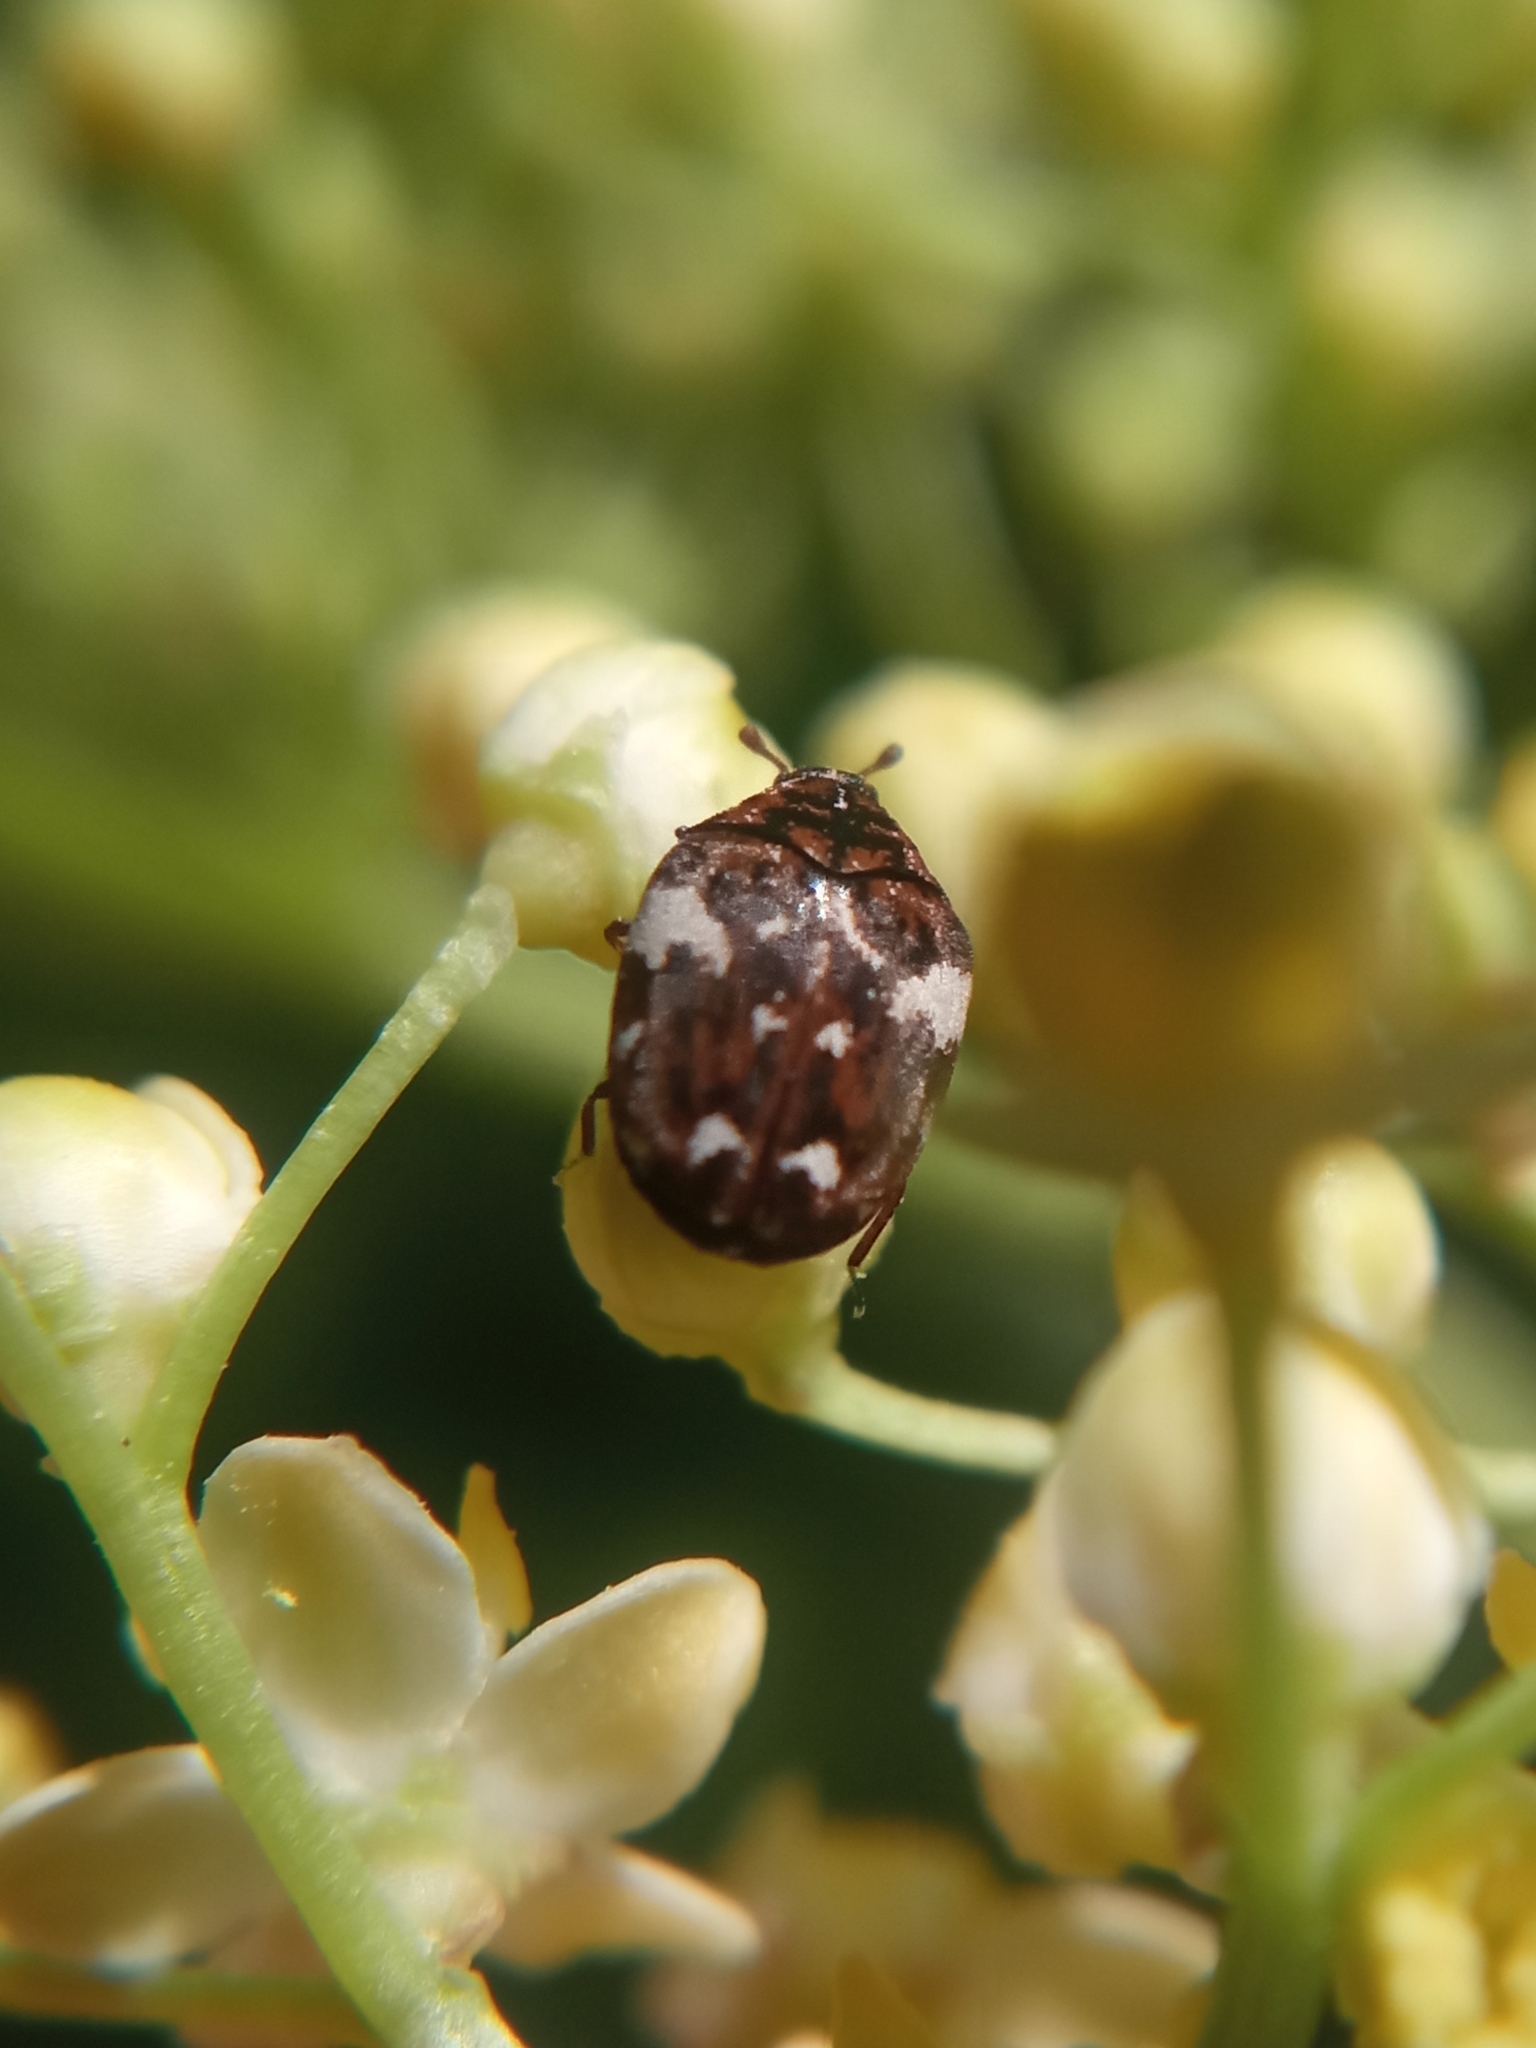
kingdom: Animalia
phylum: Arthropoda
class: Insecta
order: Coleoptera
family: Dermestidae
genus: Anthrenus
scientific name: Anthrenus angustefasciatus
